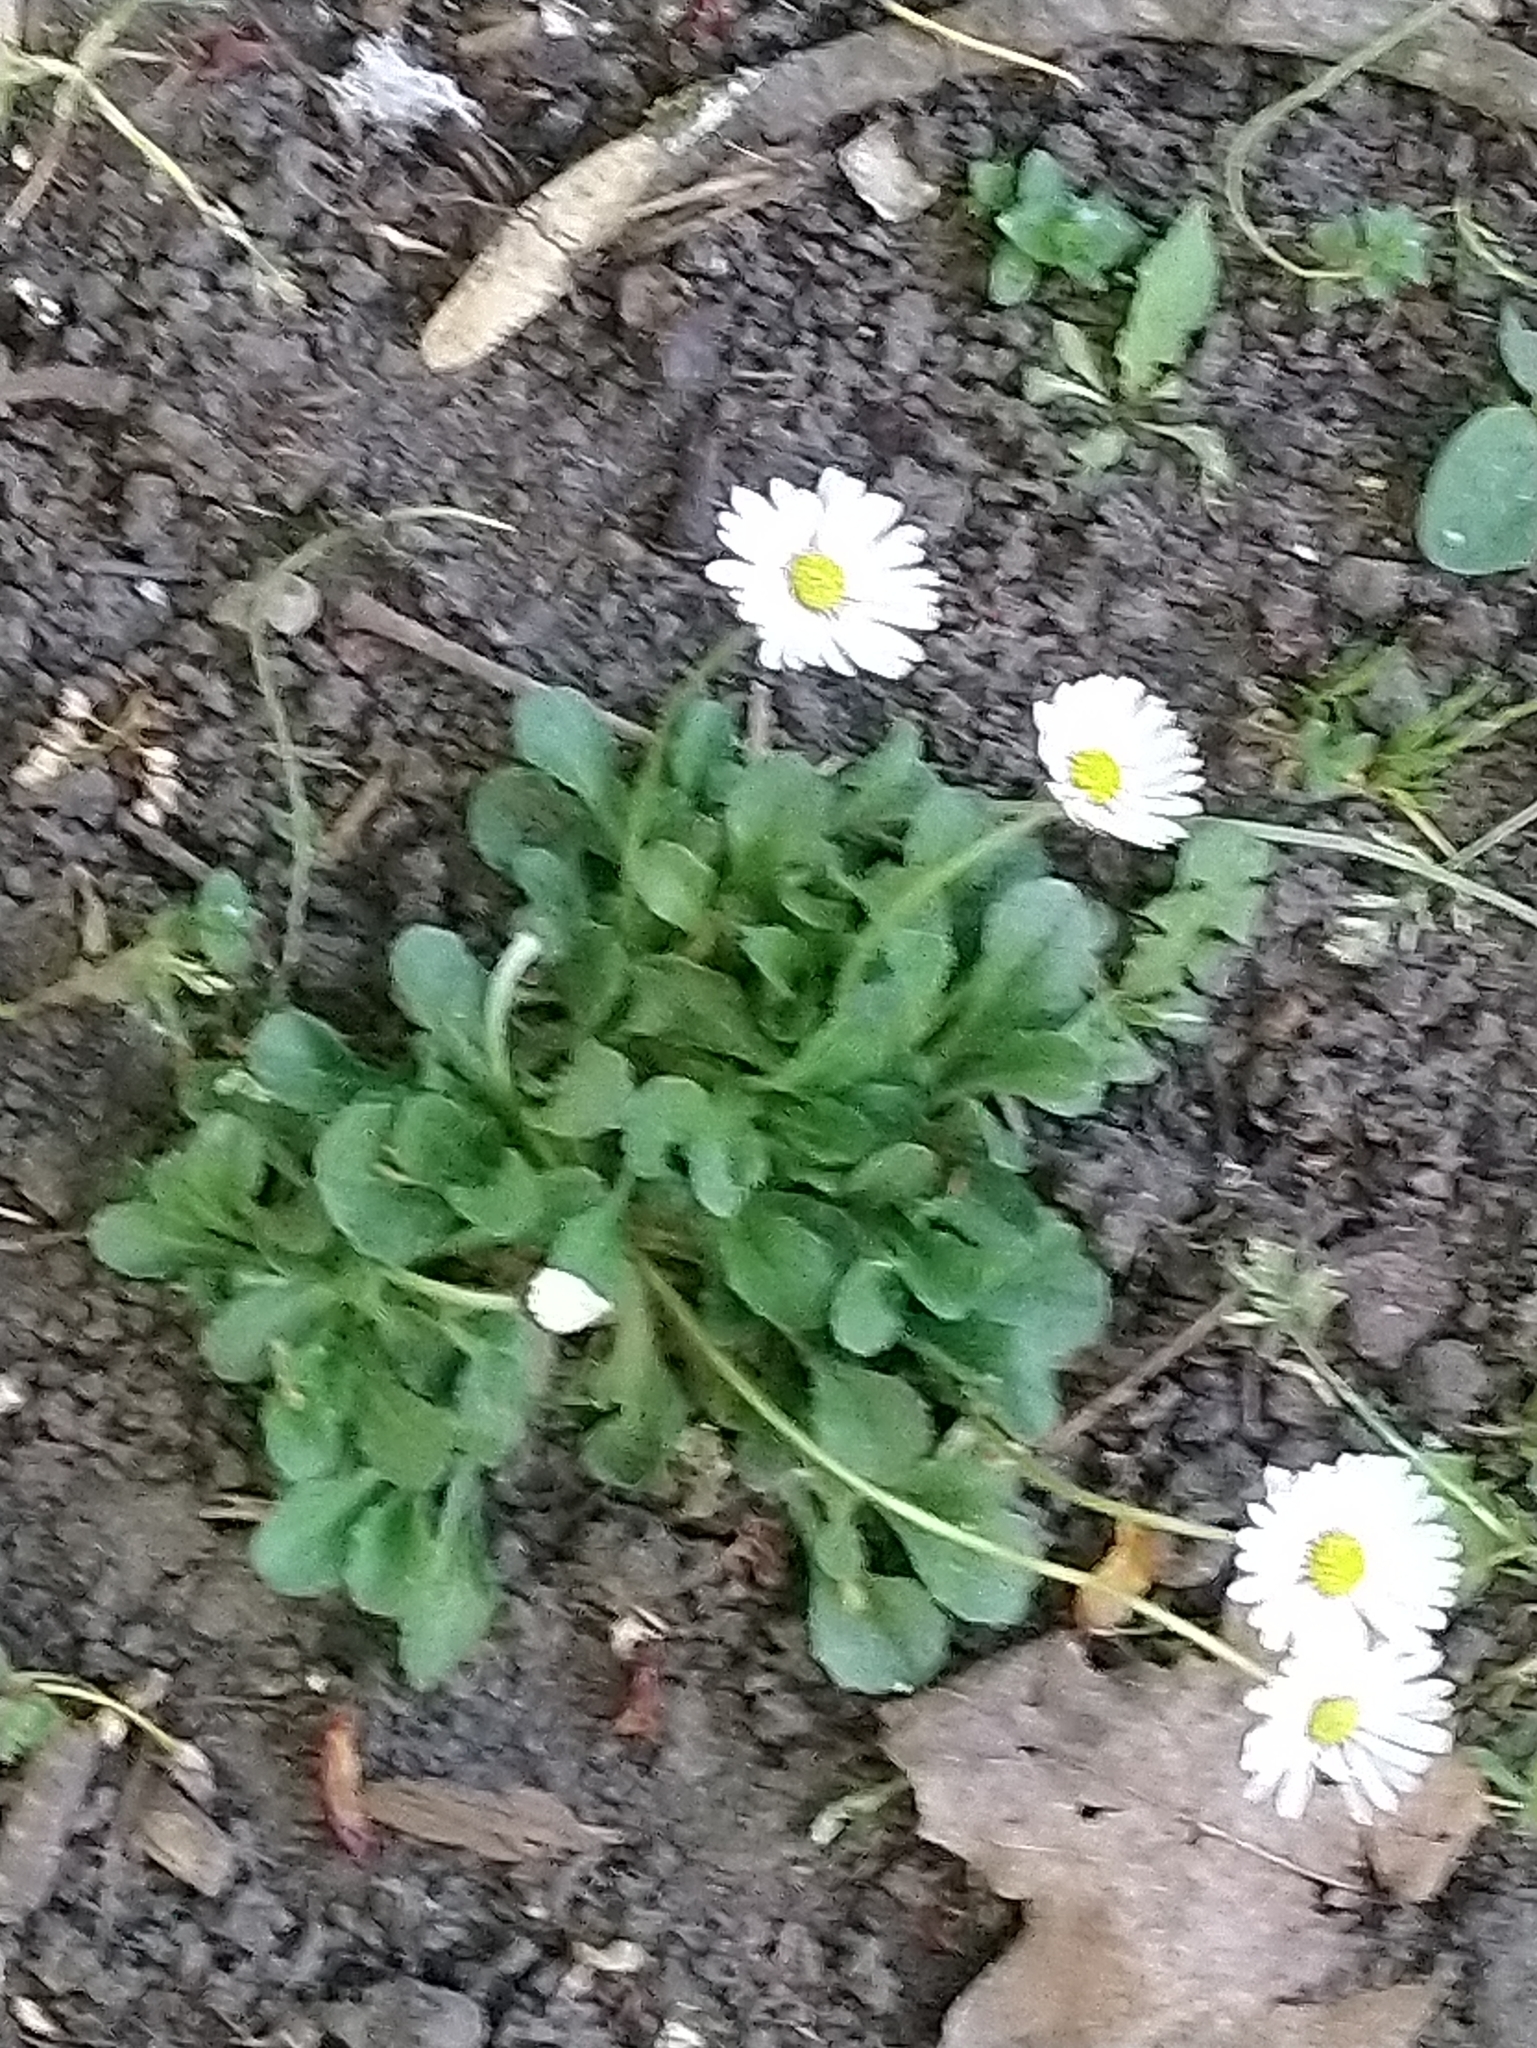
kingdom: Plantae
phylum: Tracheophyta
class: Magnoliopsida
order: Asterales
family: Asteraceae
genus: Bellis
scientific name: Bellis perennis
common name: Lawndaisy
